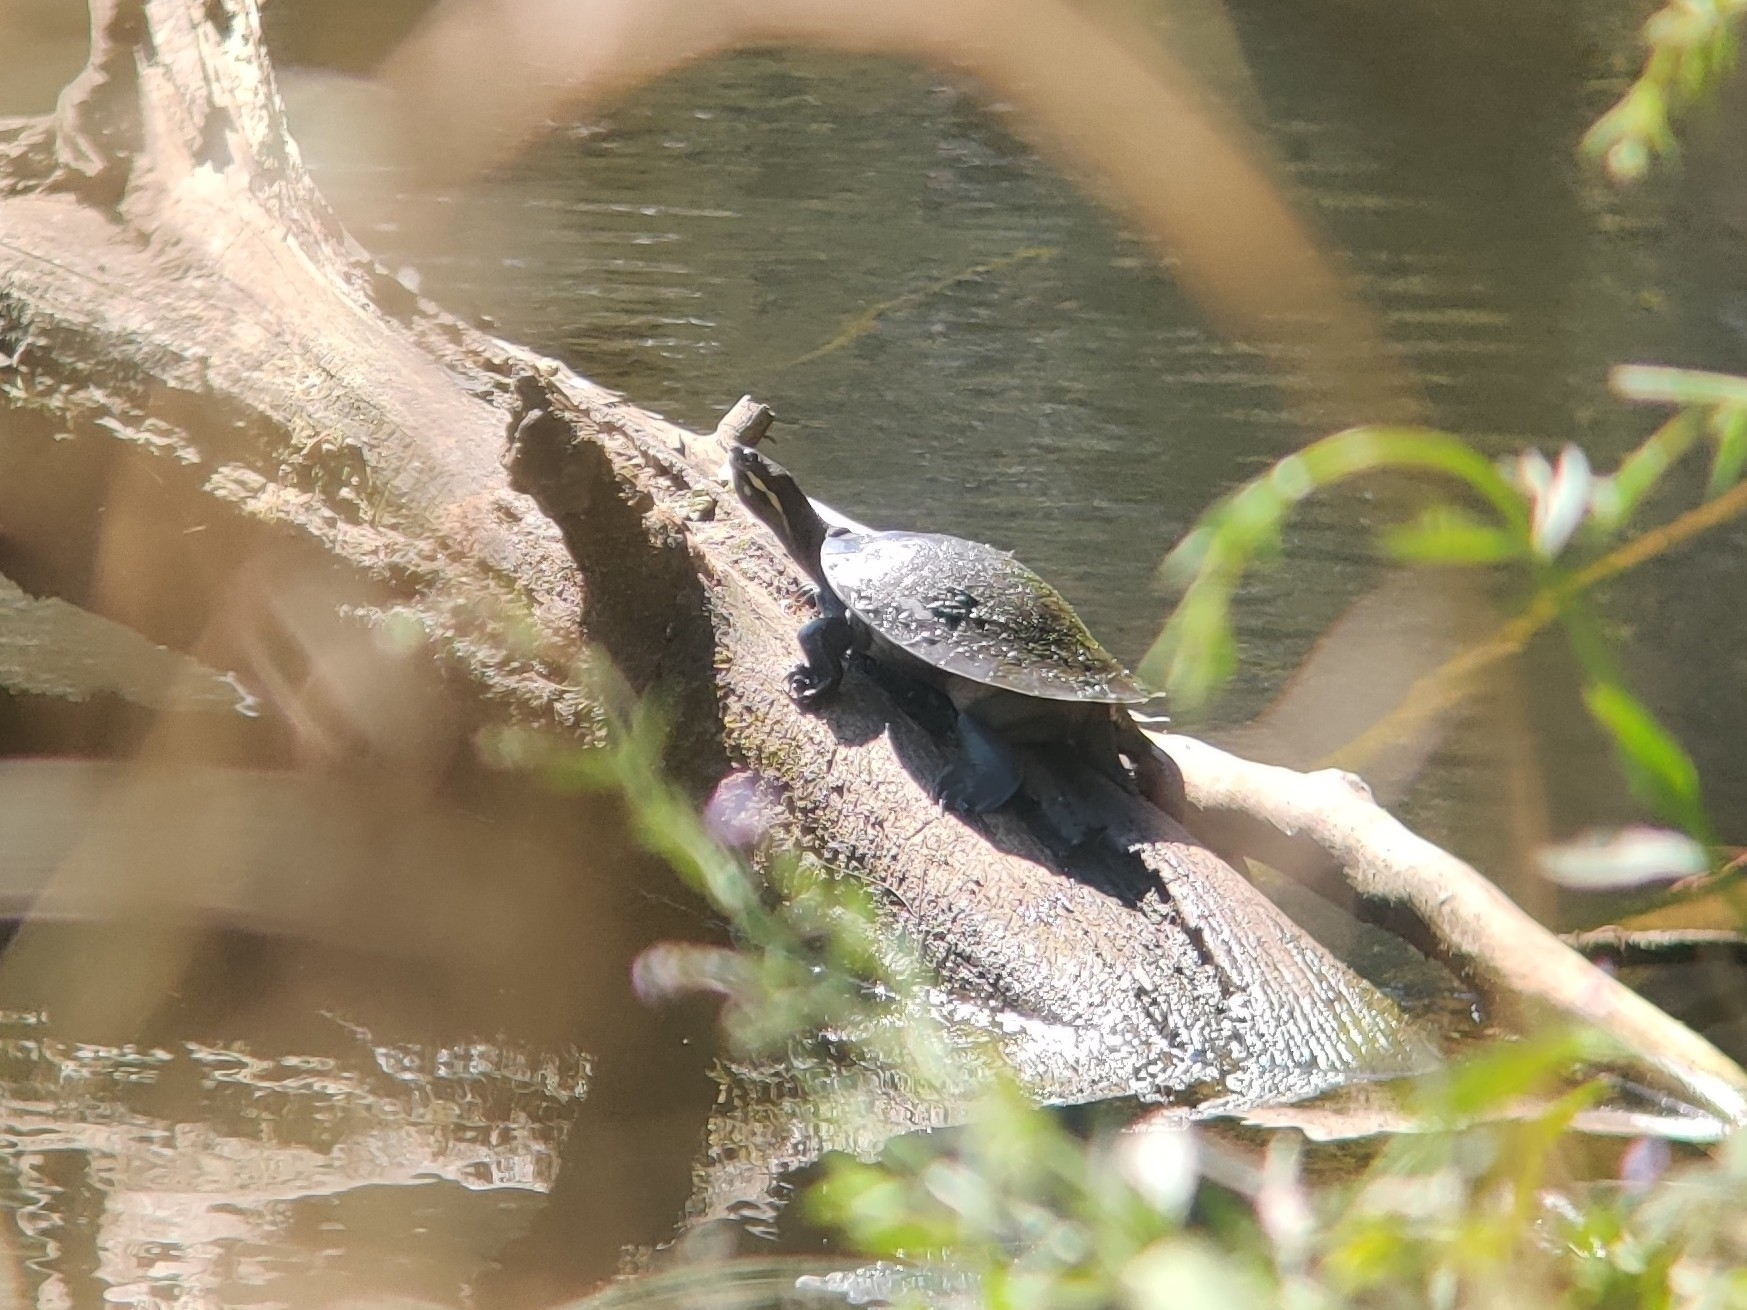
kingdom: Animalia
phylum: Chordata
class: Testudines
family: Chelidae
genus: Emydura
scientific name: Emydura macquarii
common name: Murray river turtle
